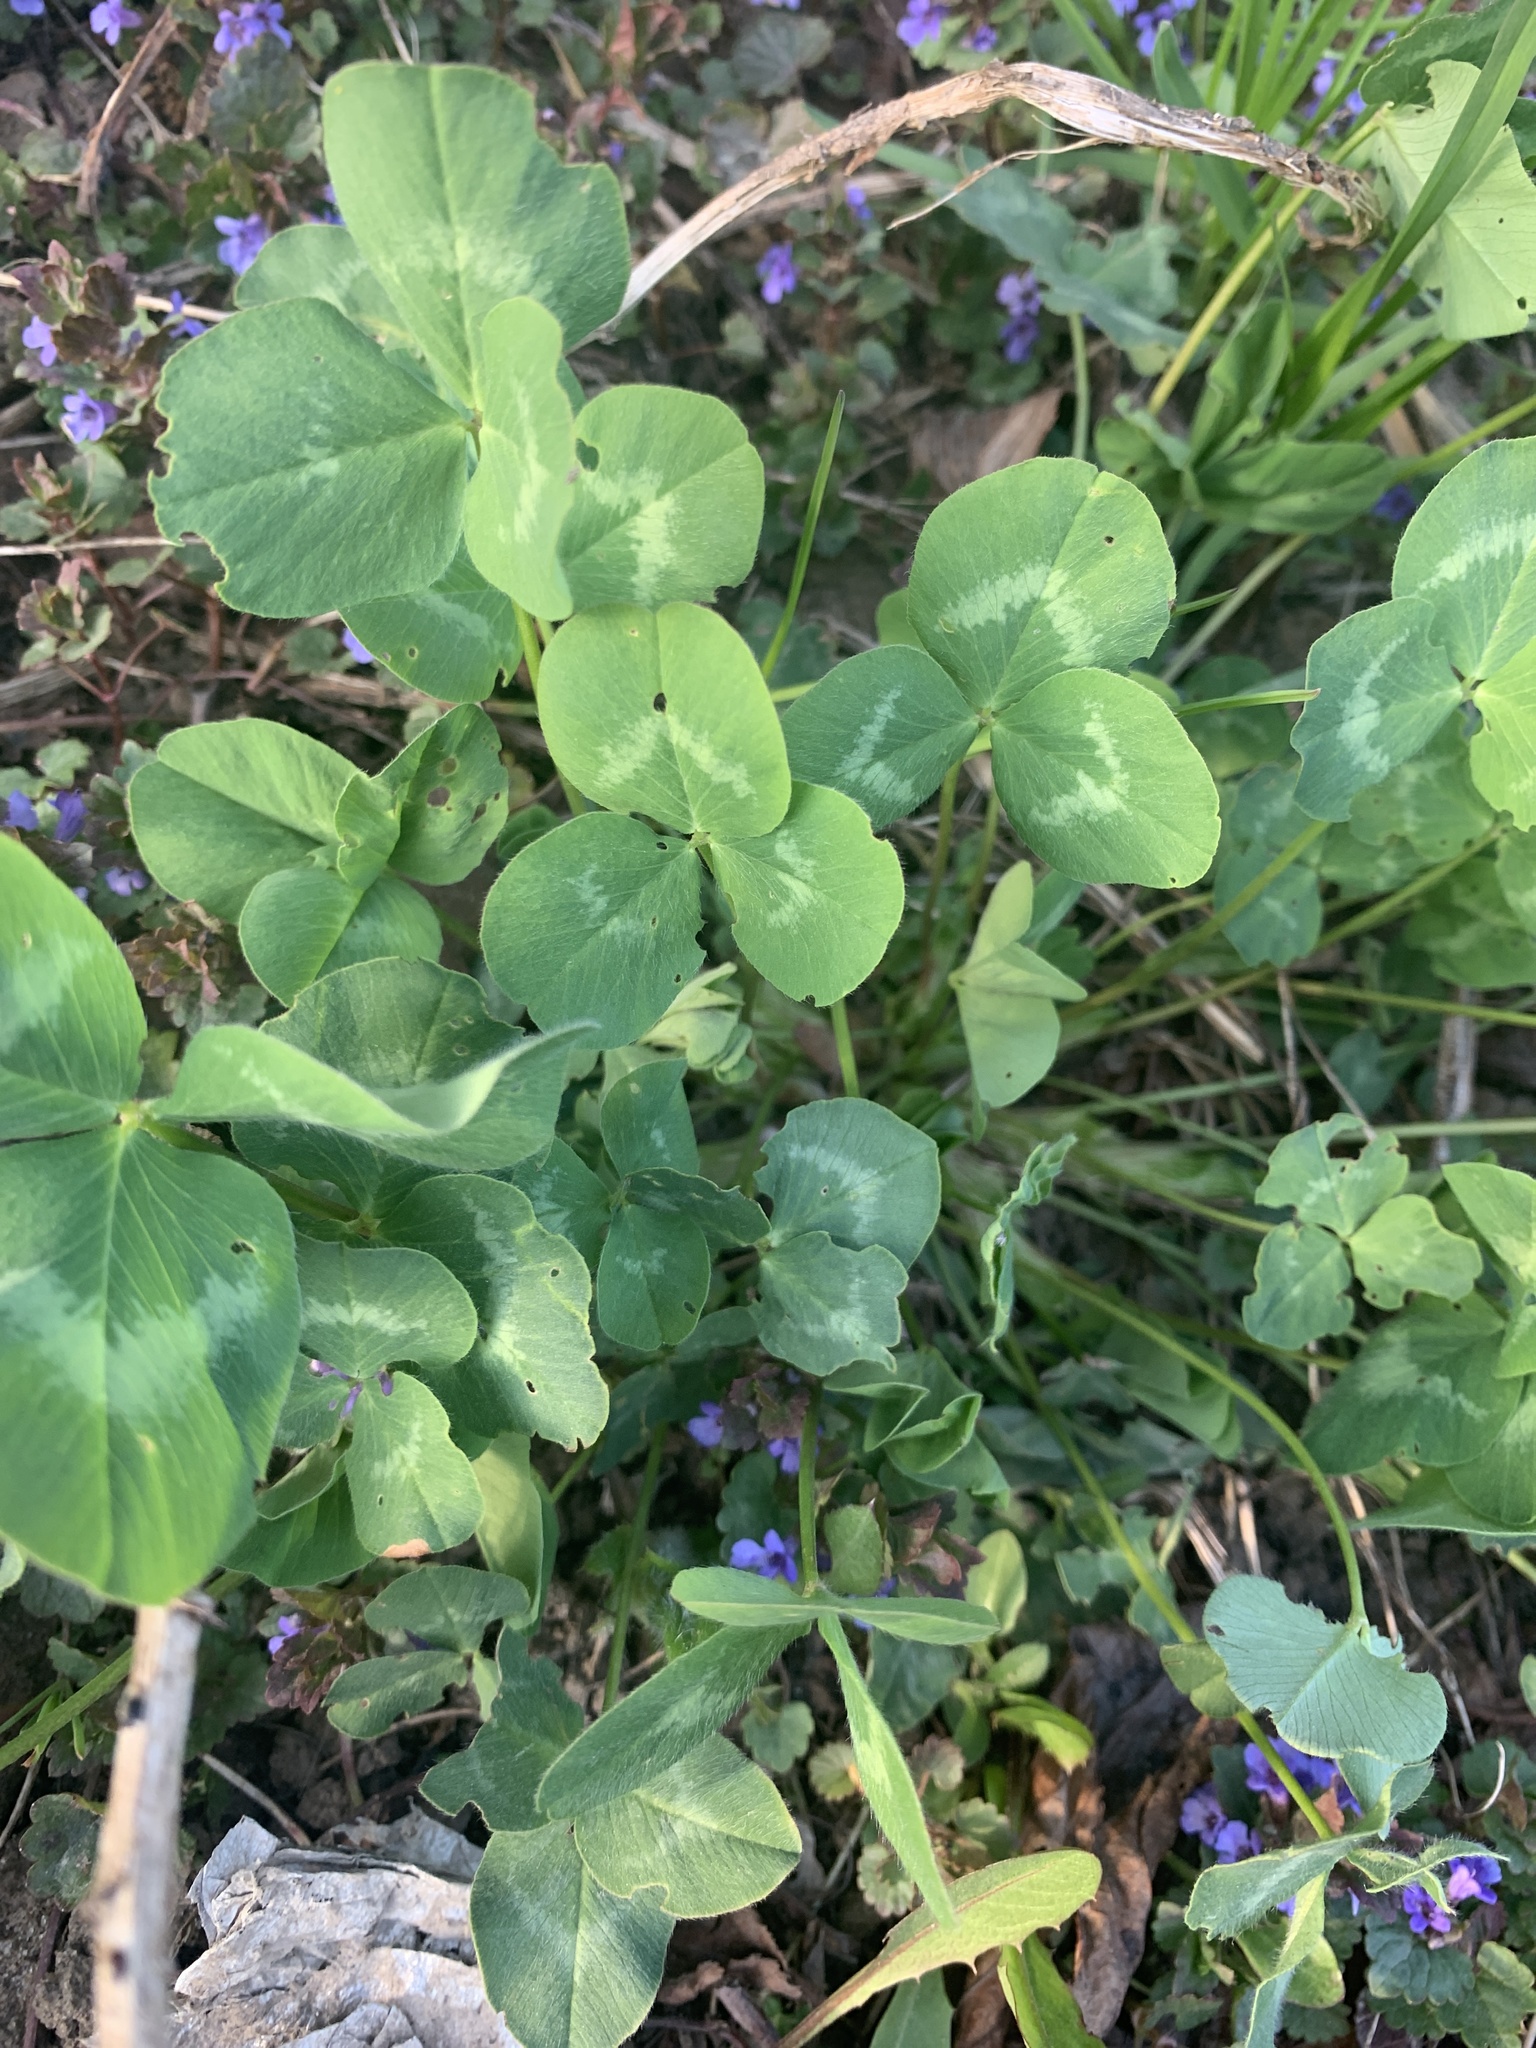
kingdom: Plantae
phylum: Tracheophyta
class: Magnoliopsida
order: Fabales
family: Fabaceae
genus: Trifolium
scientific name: Trifolium repens
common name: White clover
